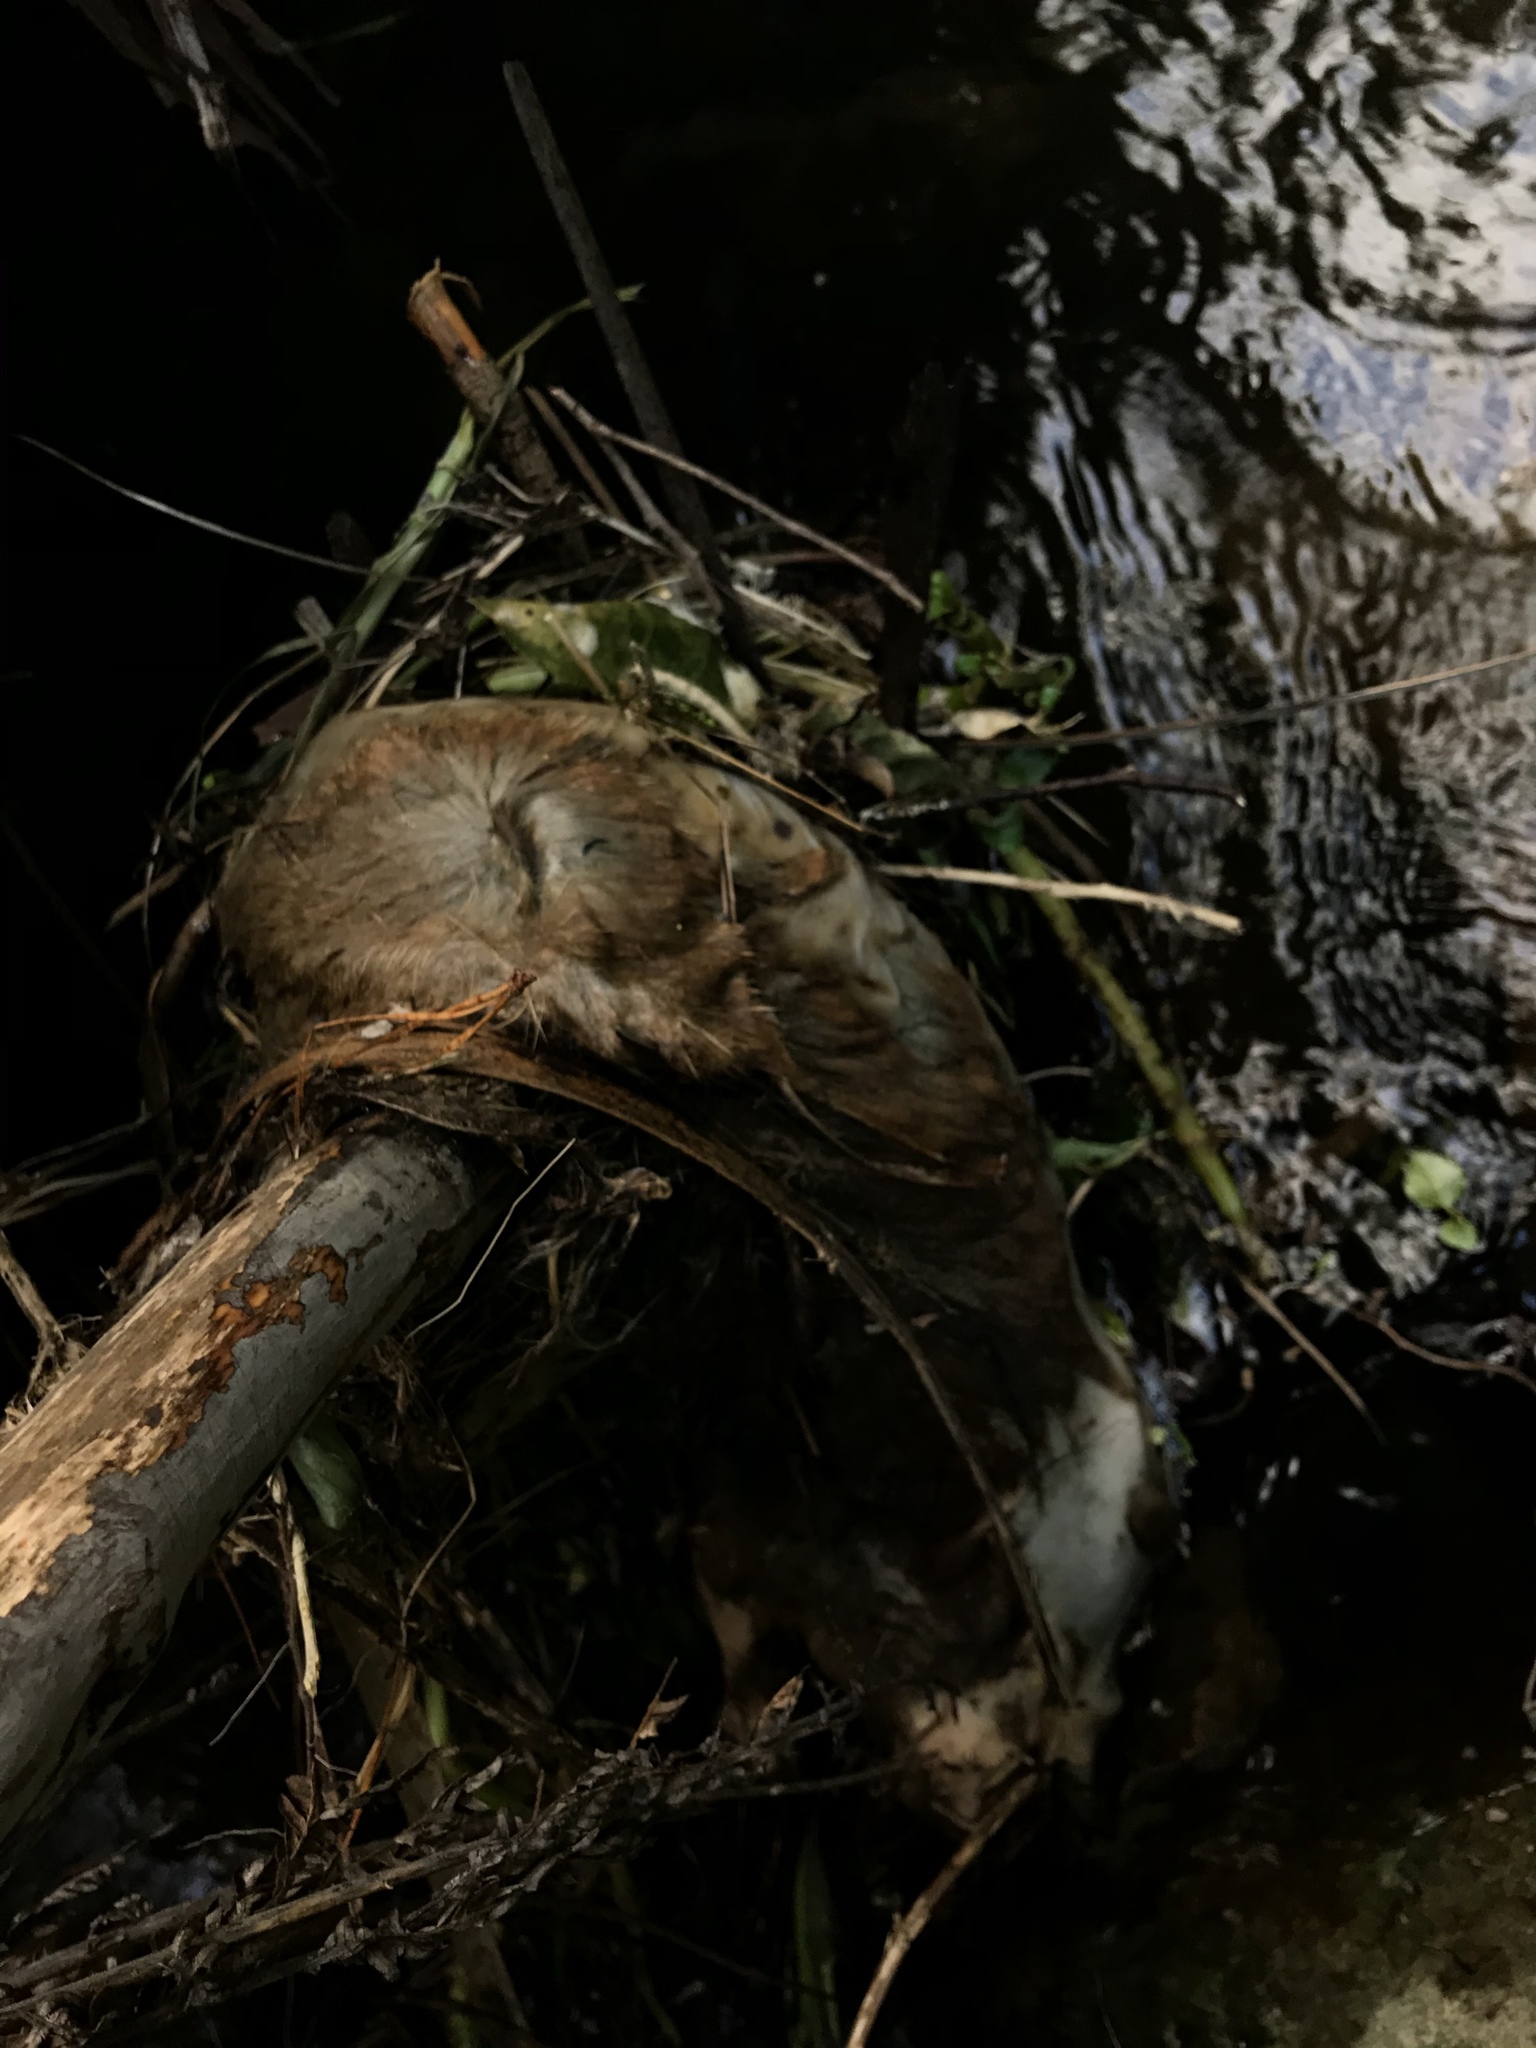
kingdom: Animalia
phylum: Chordata
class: Mammalia
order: Diprotodontia
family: Phalangeridae
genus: Trichosurus
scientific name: Trichosurus vulpecula
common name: Common brushtail
